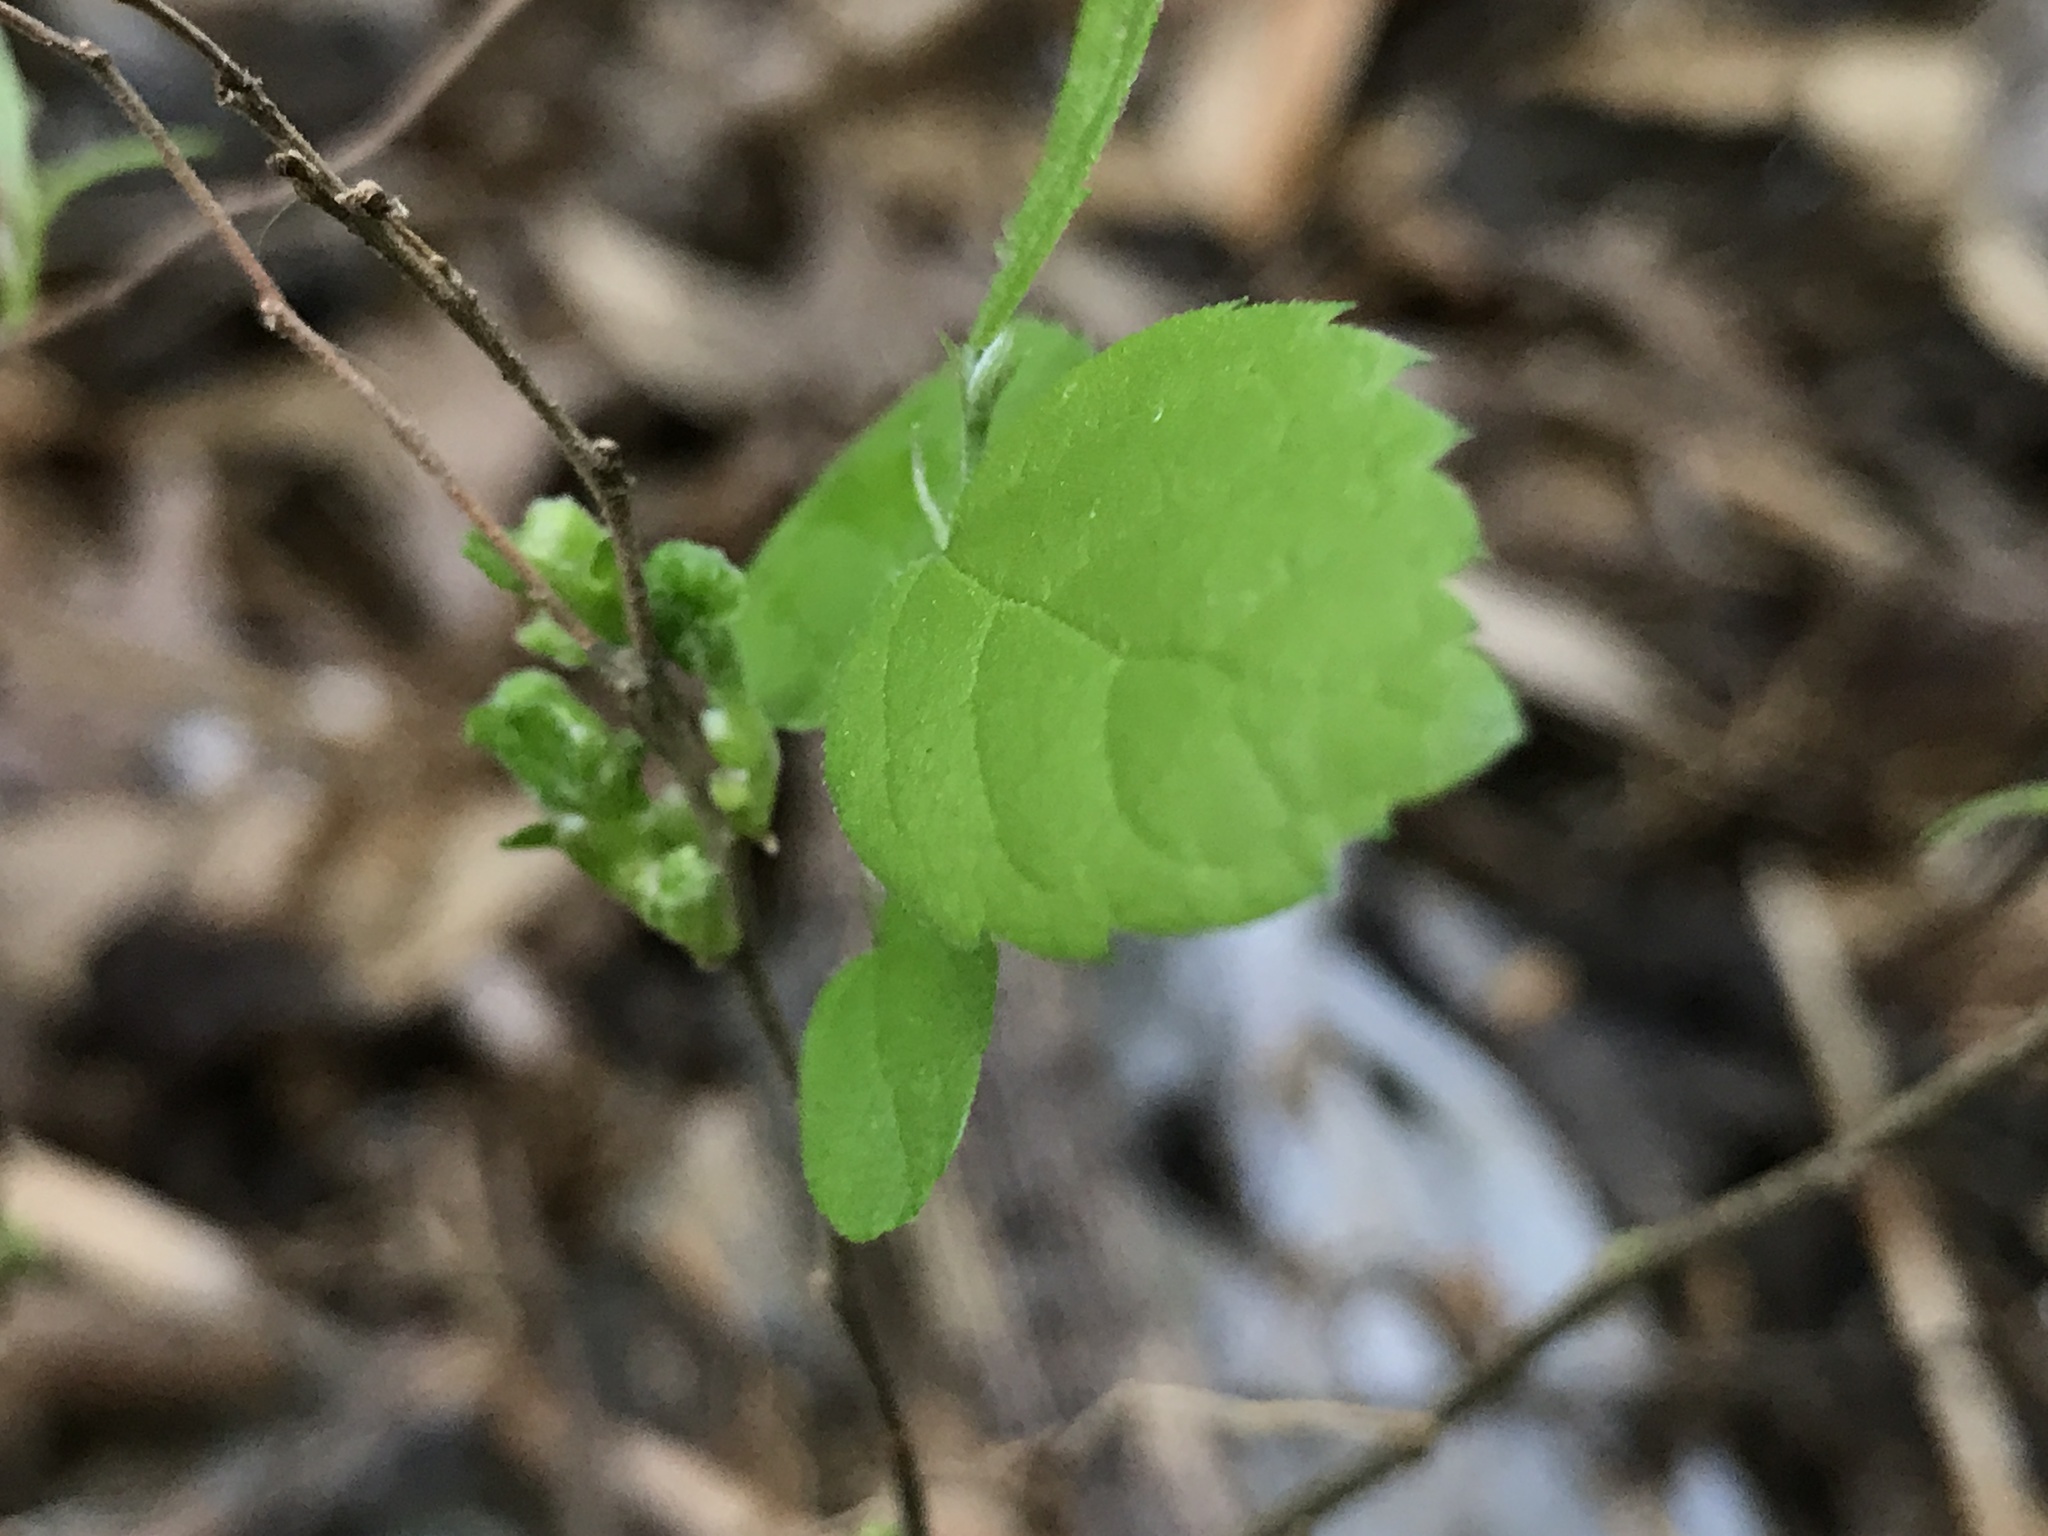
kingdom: Animalia
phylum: Arthropoda
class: Arachnida
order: Trombidiformes
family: Eriophyidae
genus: Aceria
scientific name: Aceria
